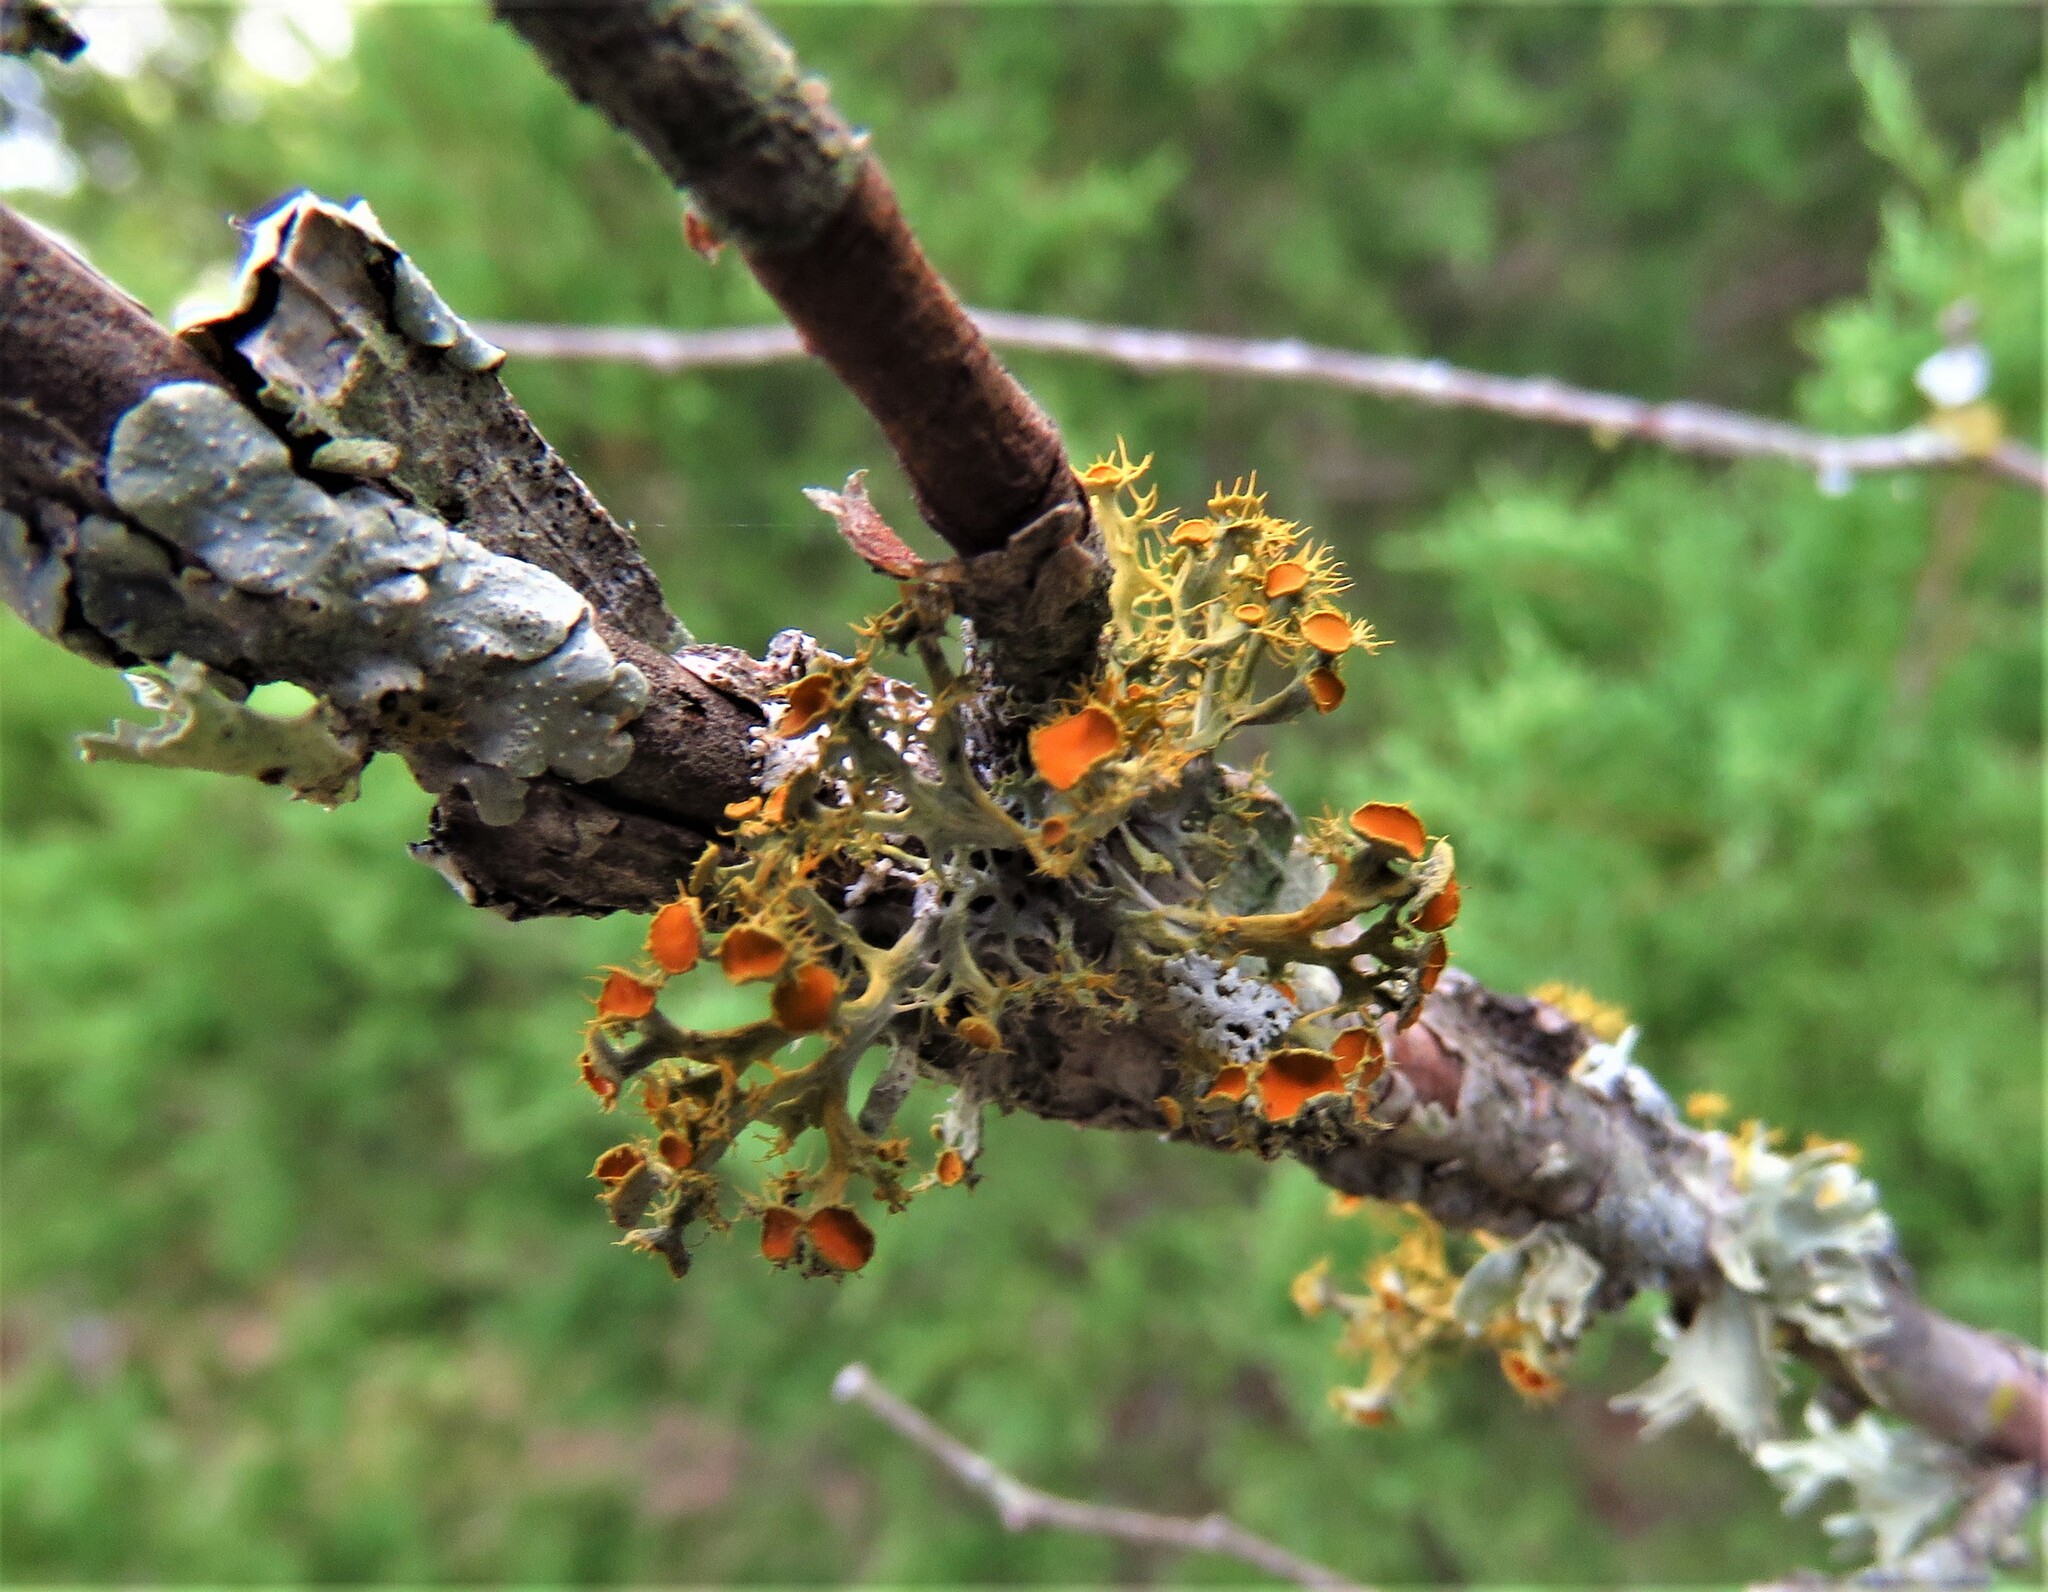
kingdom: Fungi
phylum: Ascomycota
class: Lecanoromycetes
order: Teloschistales
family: Teloschistaceae
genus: Niorma
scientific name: Niorma chrysophthalma
